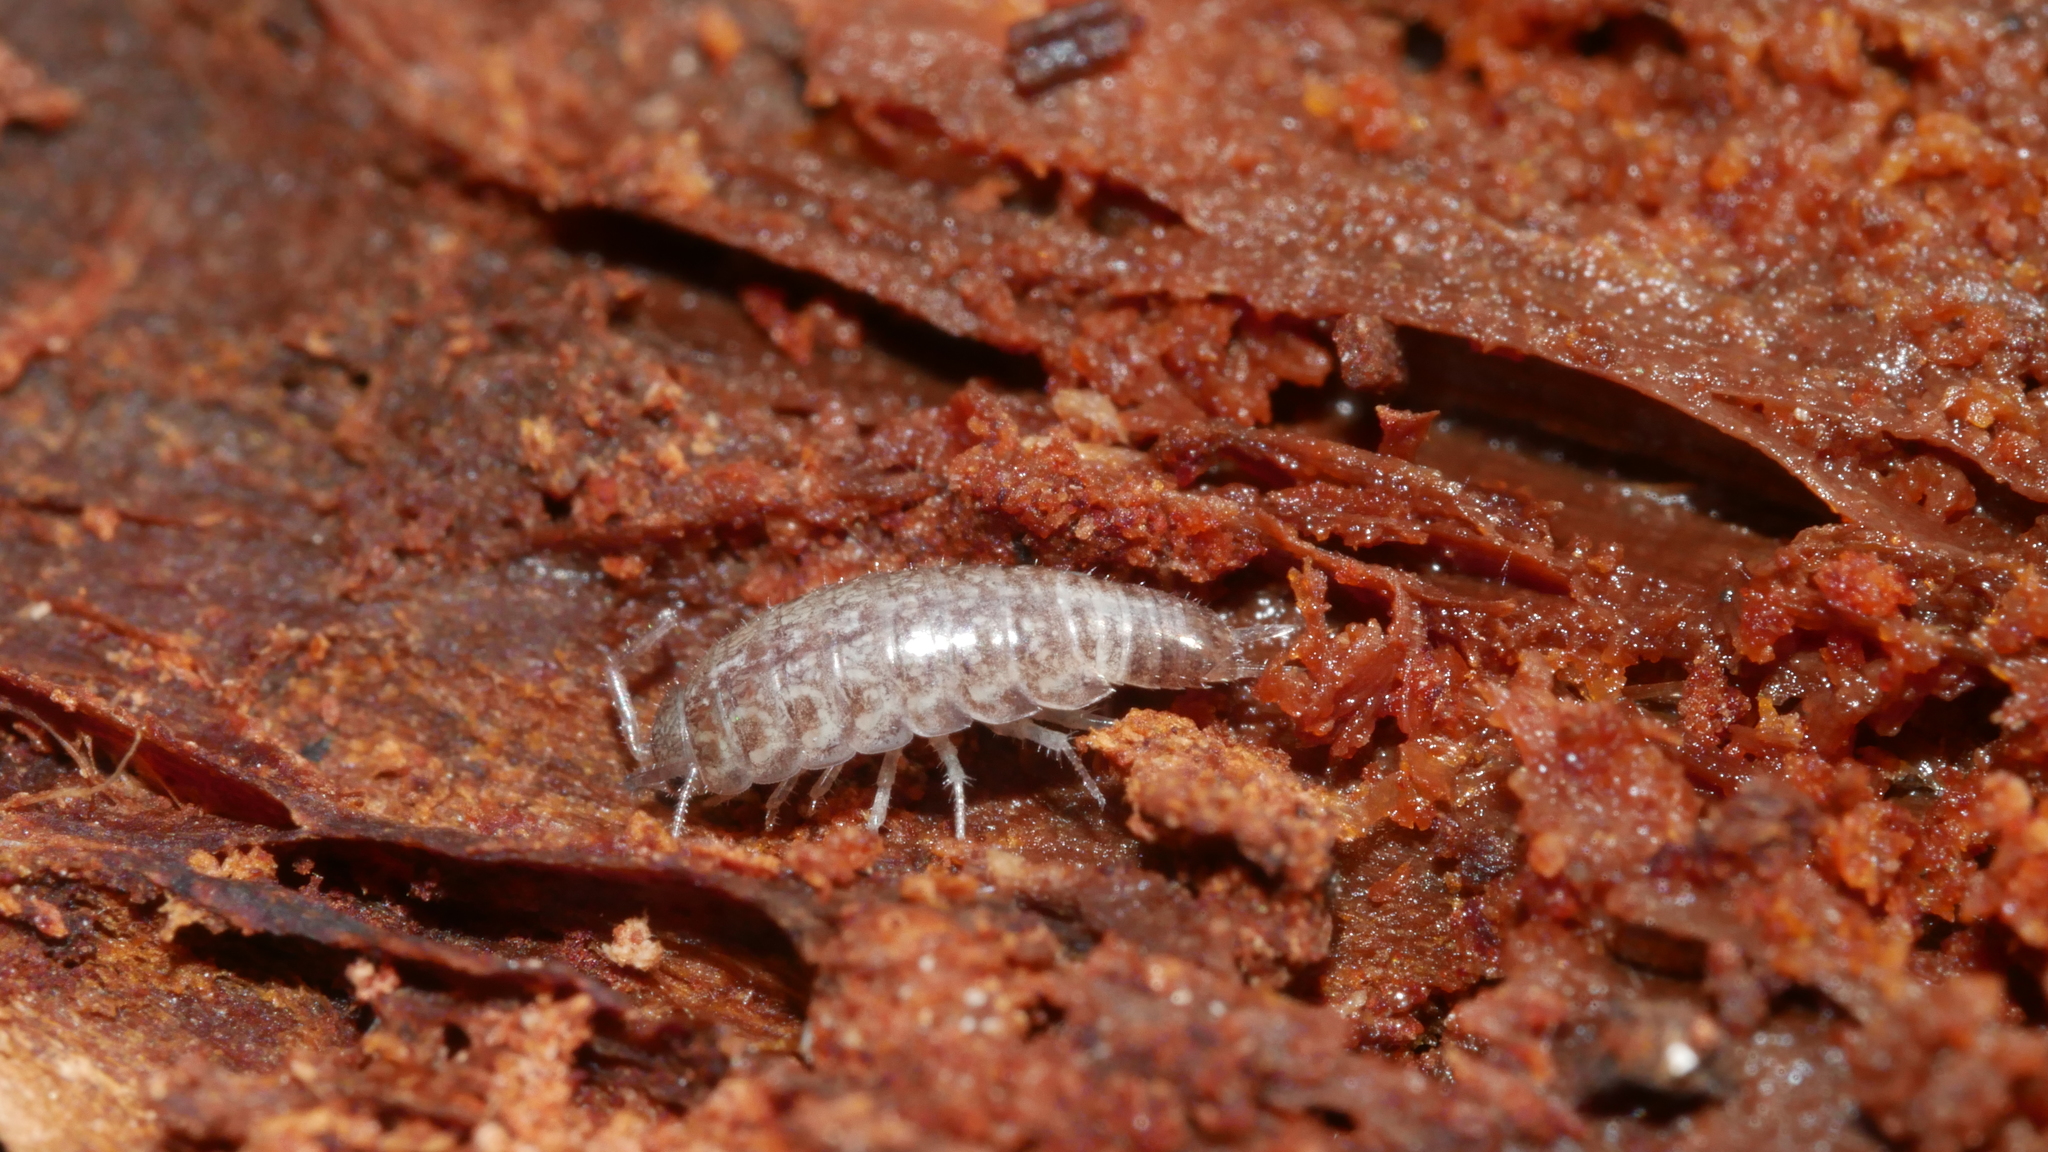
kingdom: Animalia
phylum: Arthropoda
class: Malacostraca
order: Isopoda
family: Philosciidae
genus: Chaetophiloscia
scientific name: Chaetophiloscia sicula
